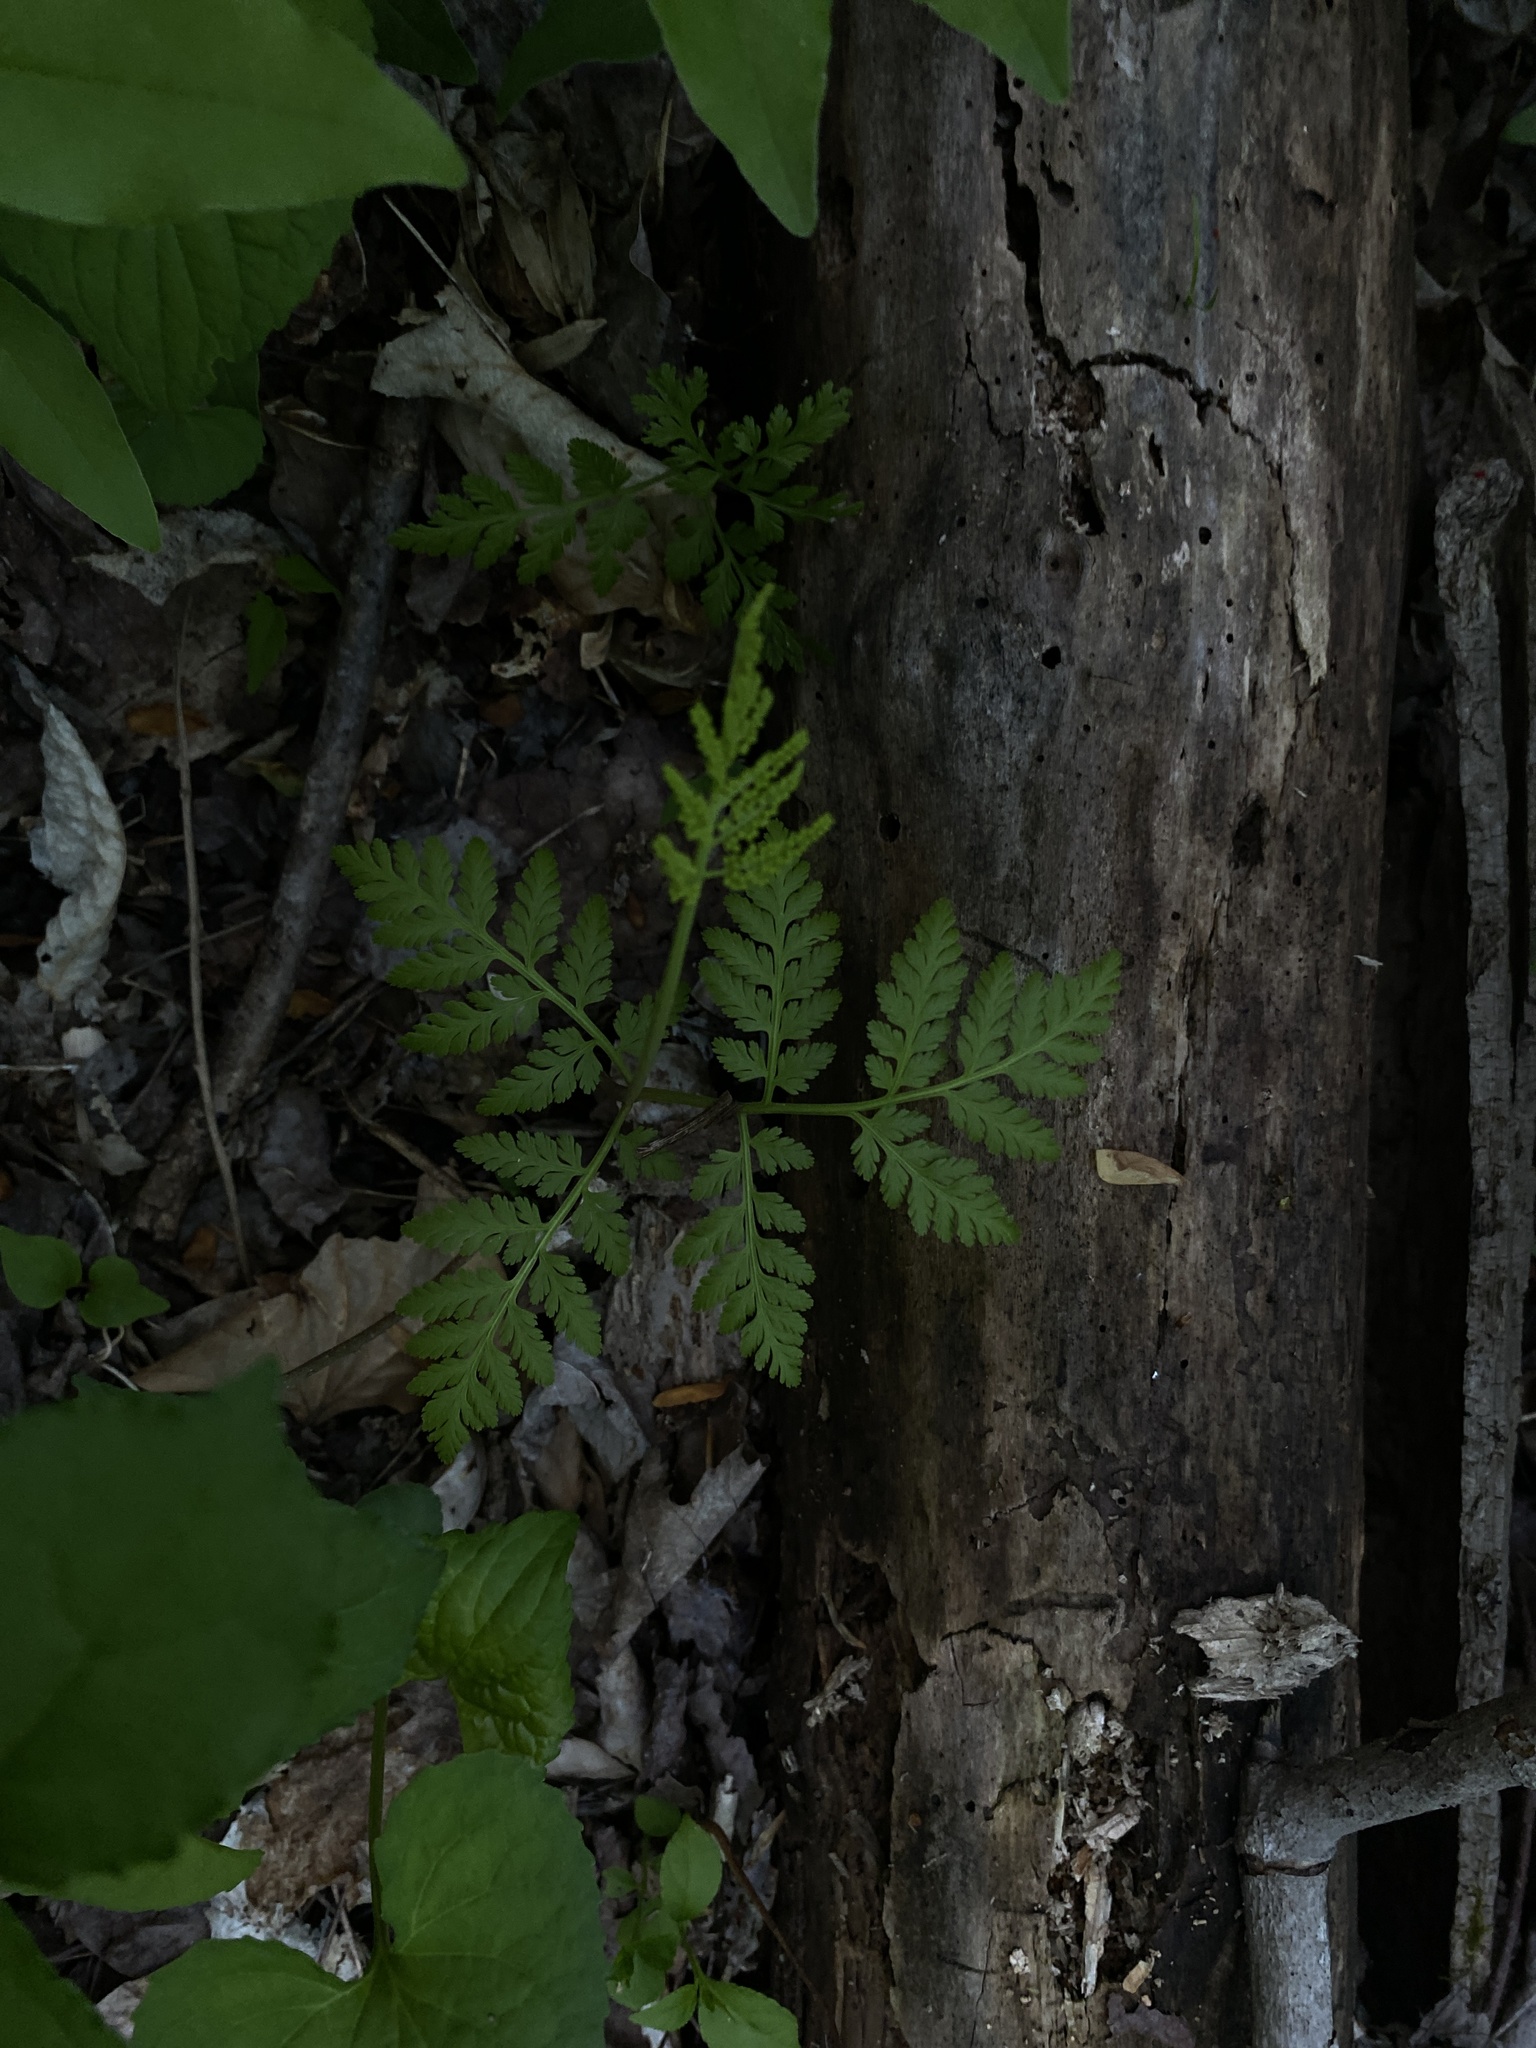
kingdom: Plantae
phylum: Tracheophyta
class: Polypodiopsida
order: Ophioglossales
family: Ophioglossaceae
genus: Botrypus
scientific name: Botrypus virginianus
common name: Common grapefern
